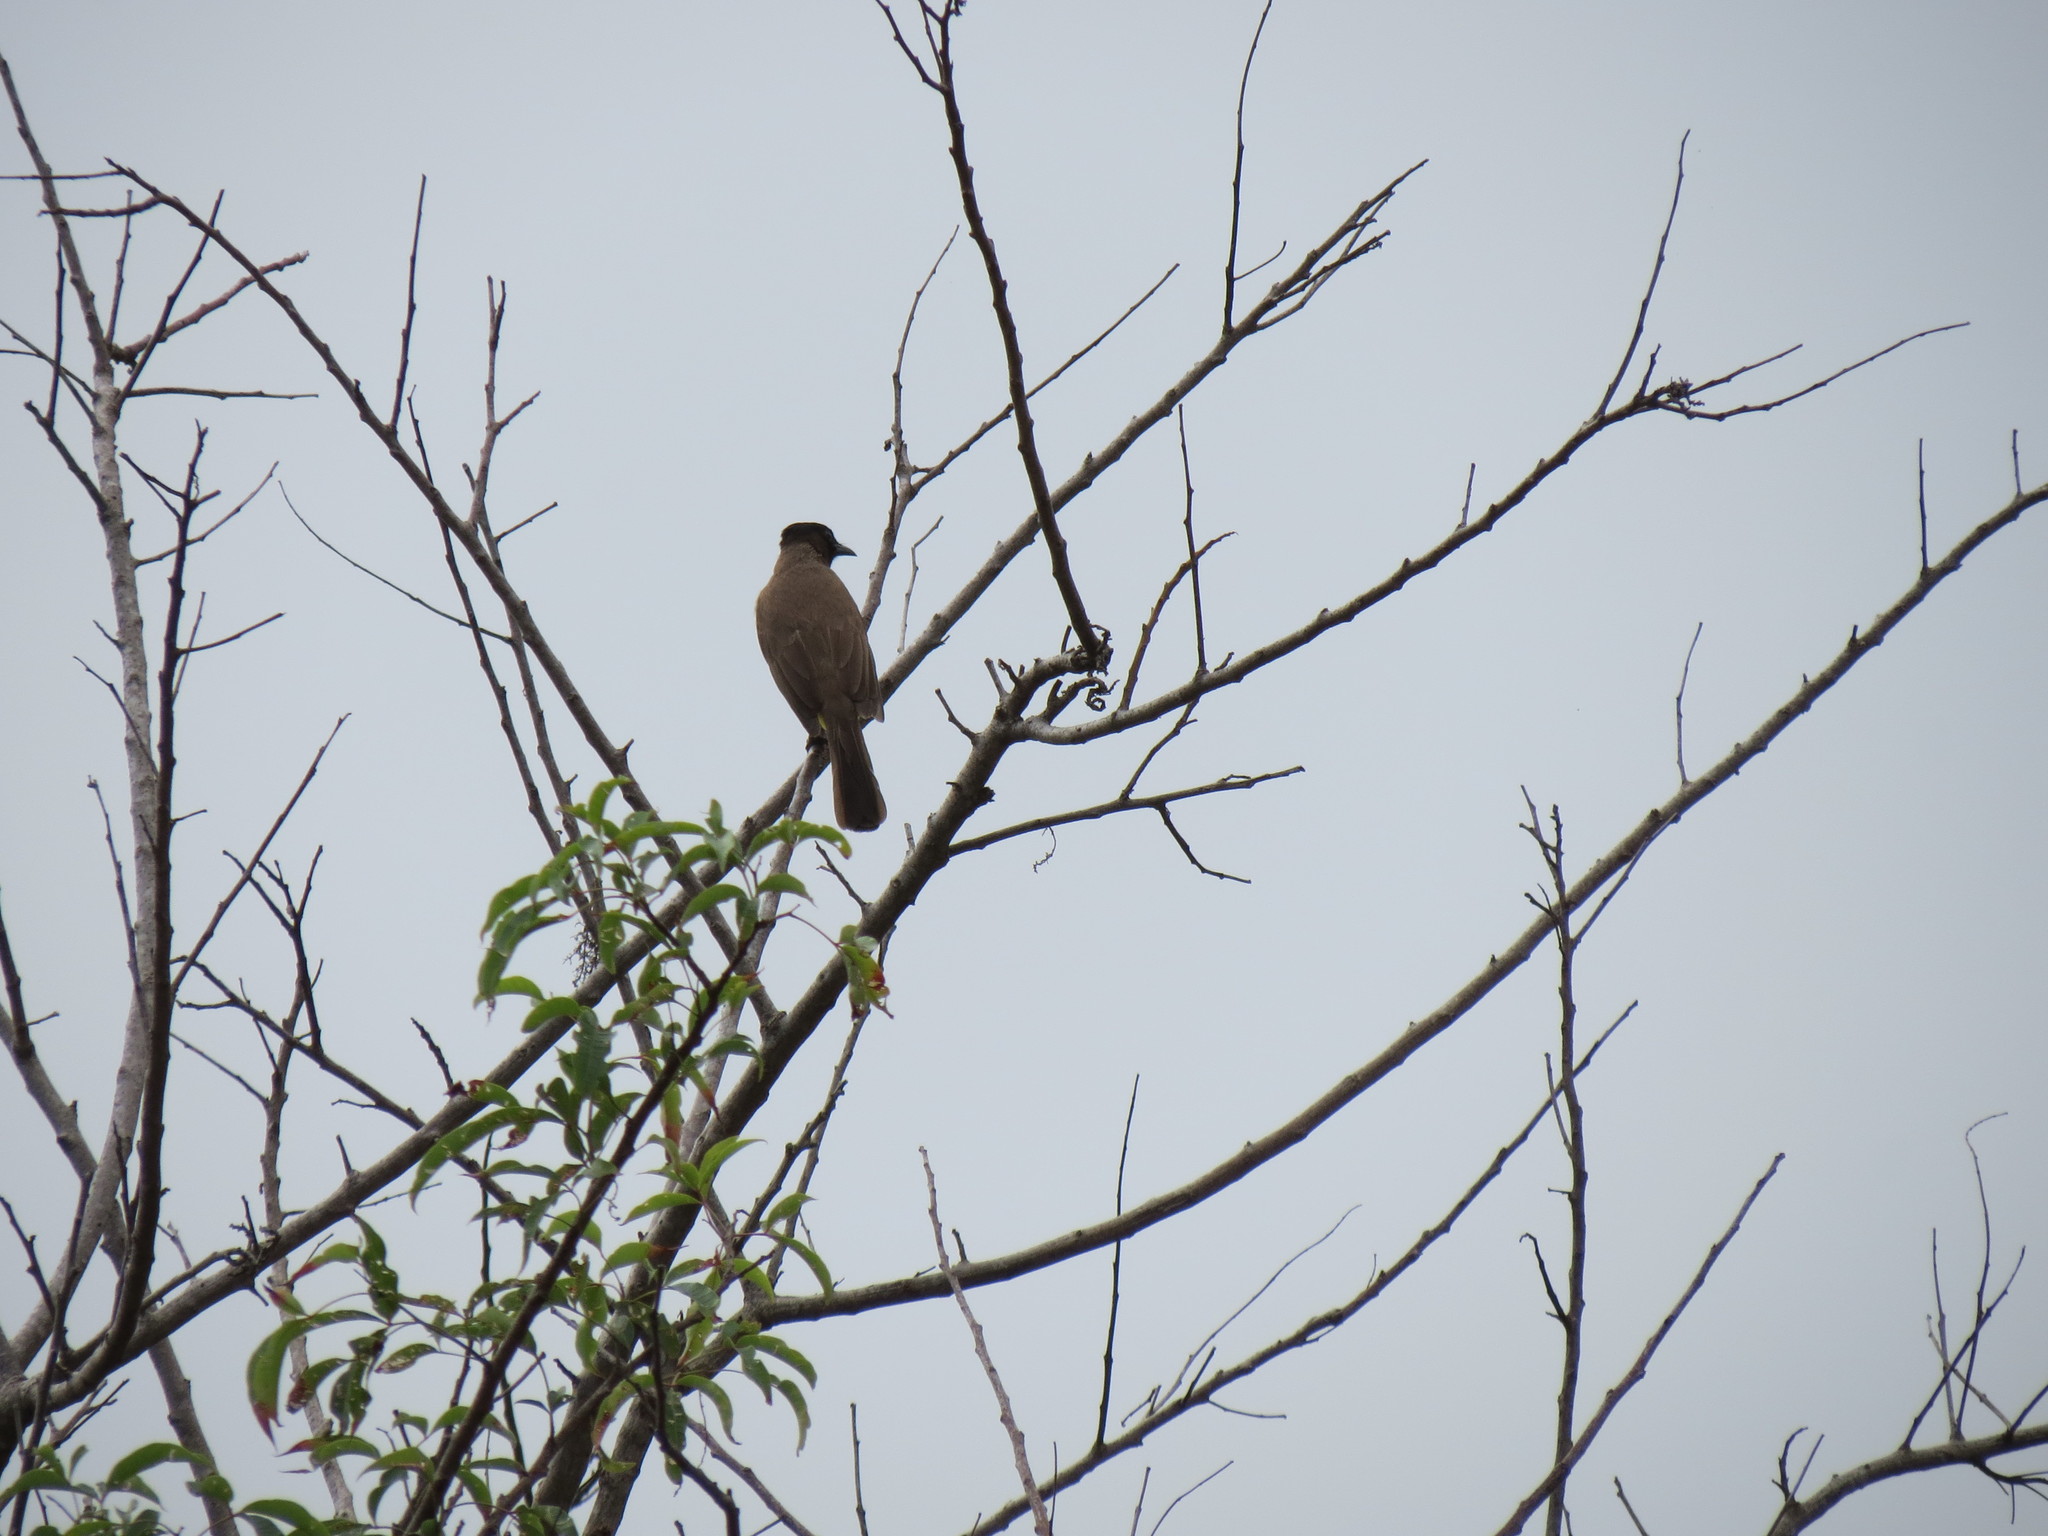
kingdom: Animalia
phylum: Chordata
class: Aves
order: Passeriformes
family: Pycnonotidae
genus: Pycnonotus
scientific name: Pycnonotus barbatus
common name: Common bulbul
